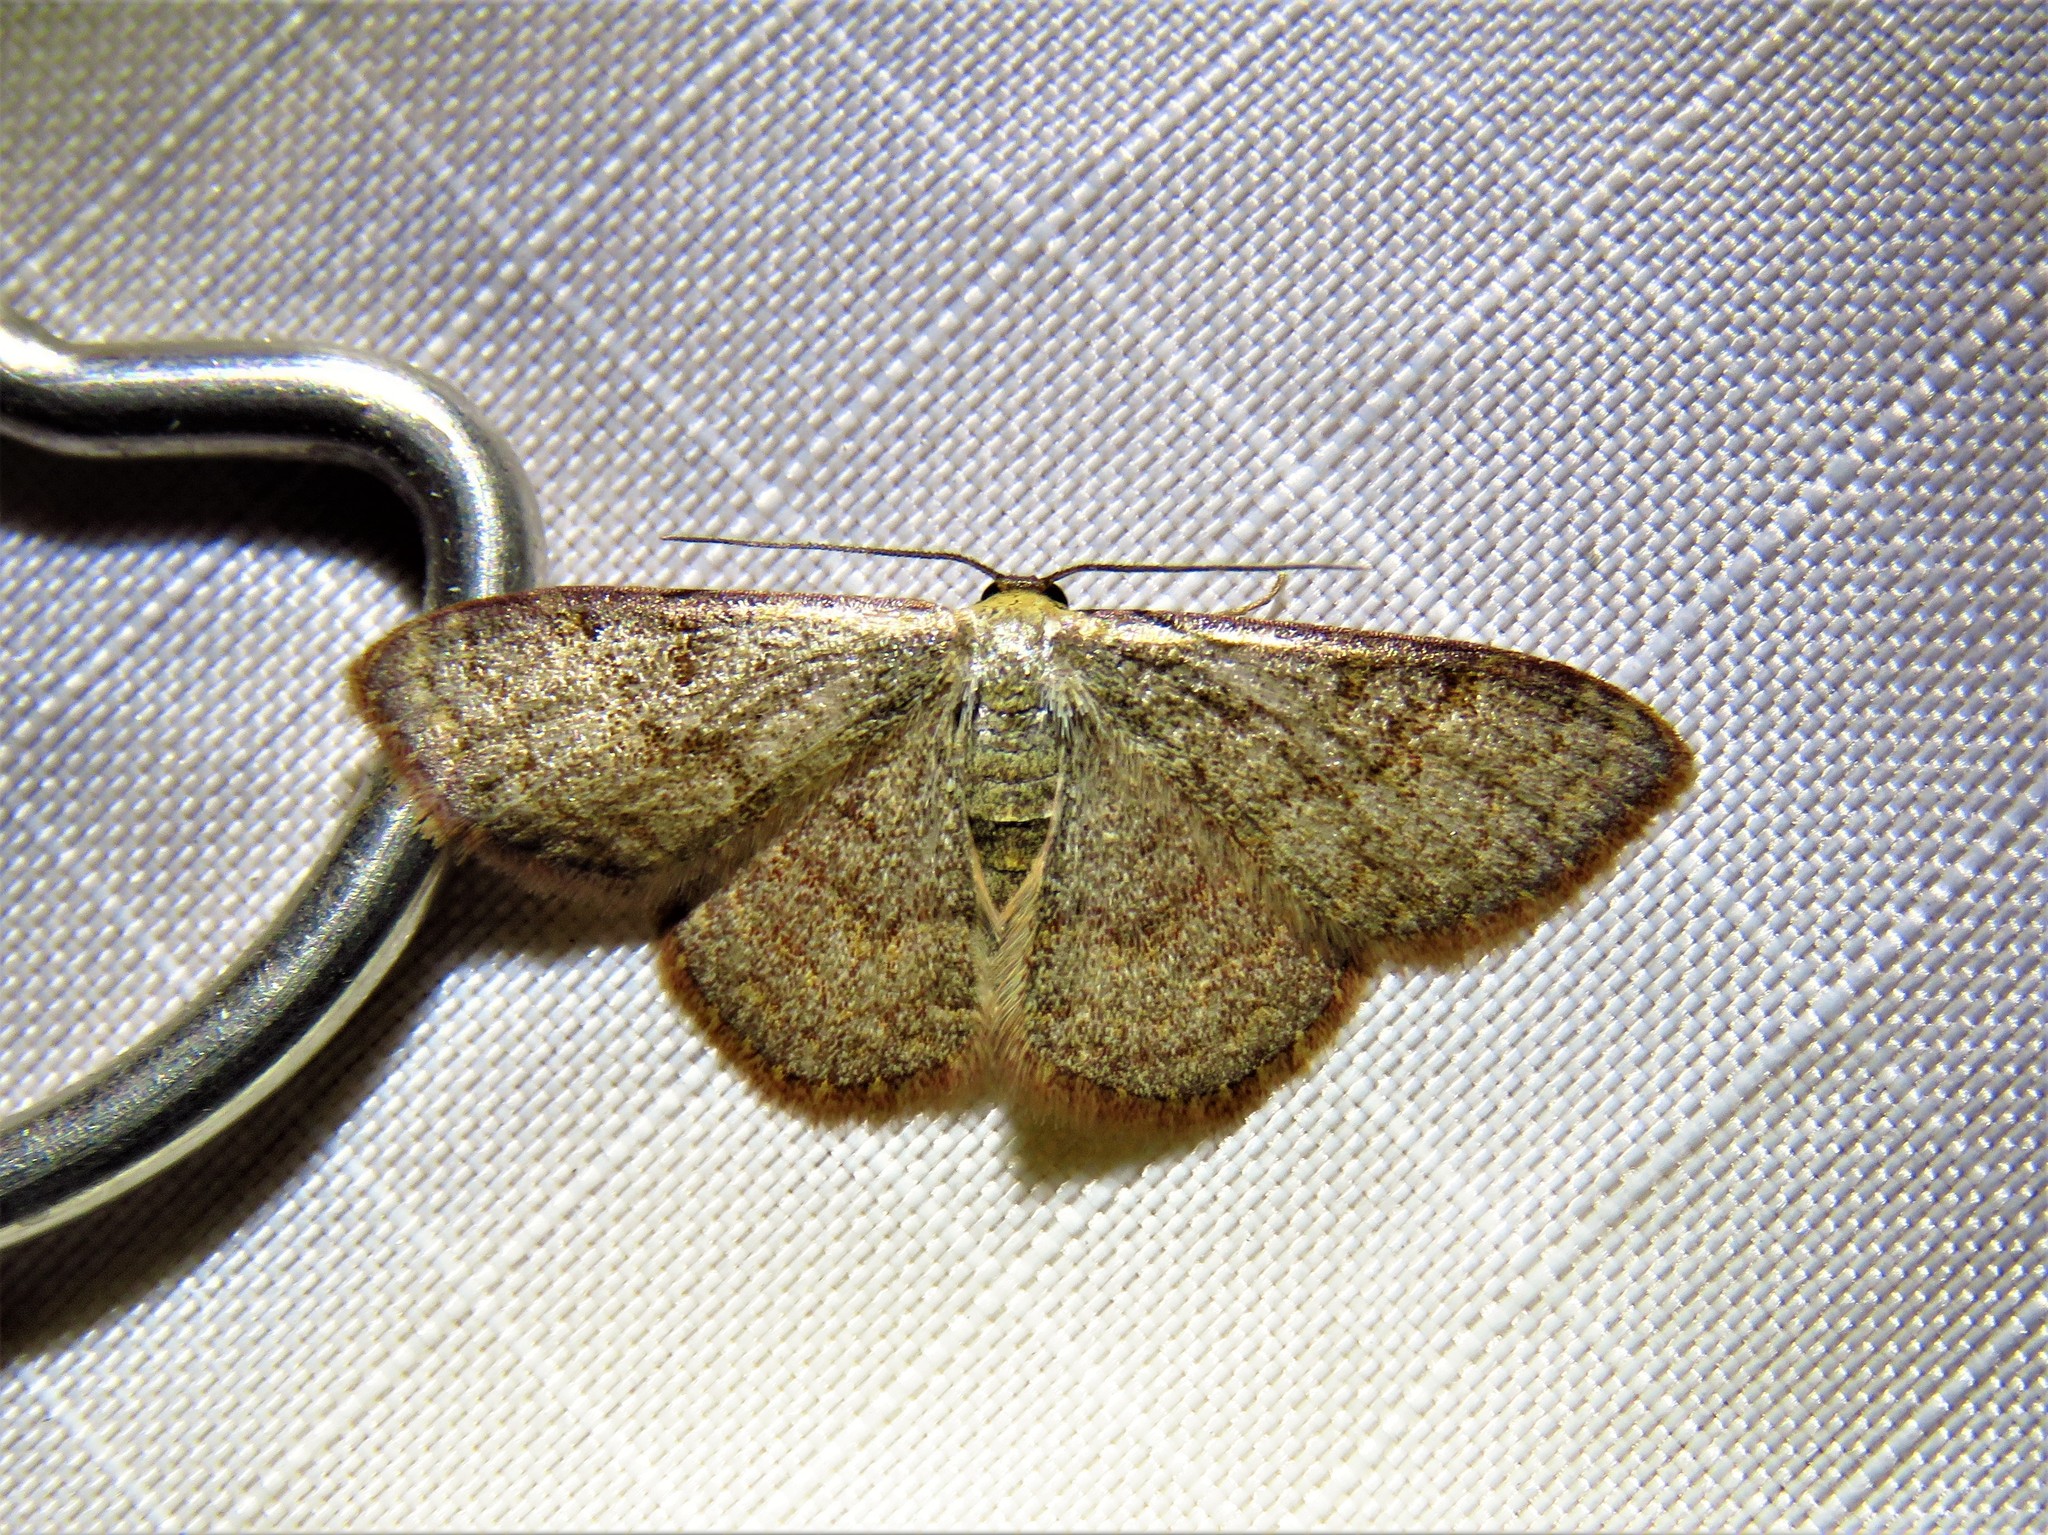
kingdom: Animalia
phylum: Arthropoda
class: Insecta
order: Lepidoptera
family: Geometridae
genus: Leptostales
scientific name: Leptostales pannaria
